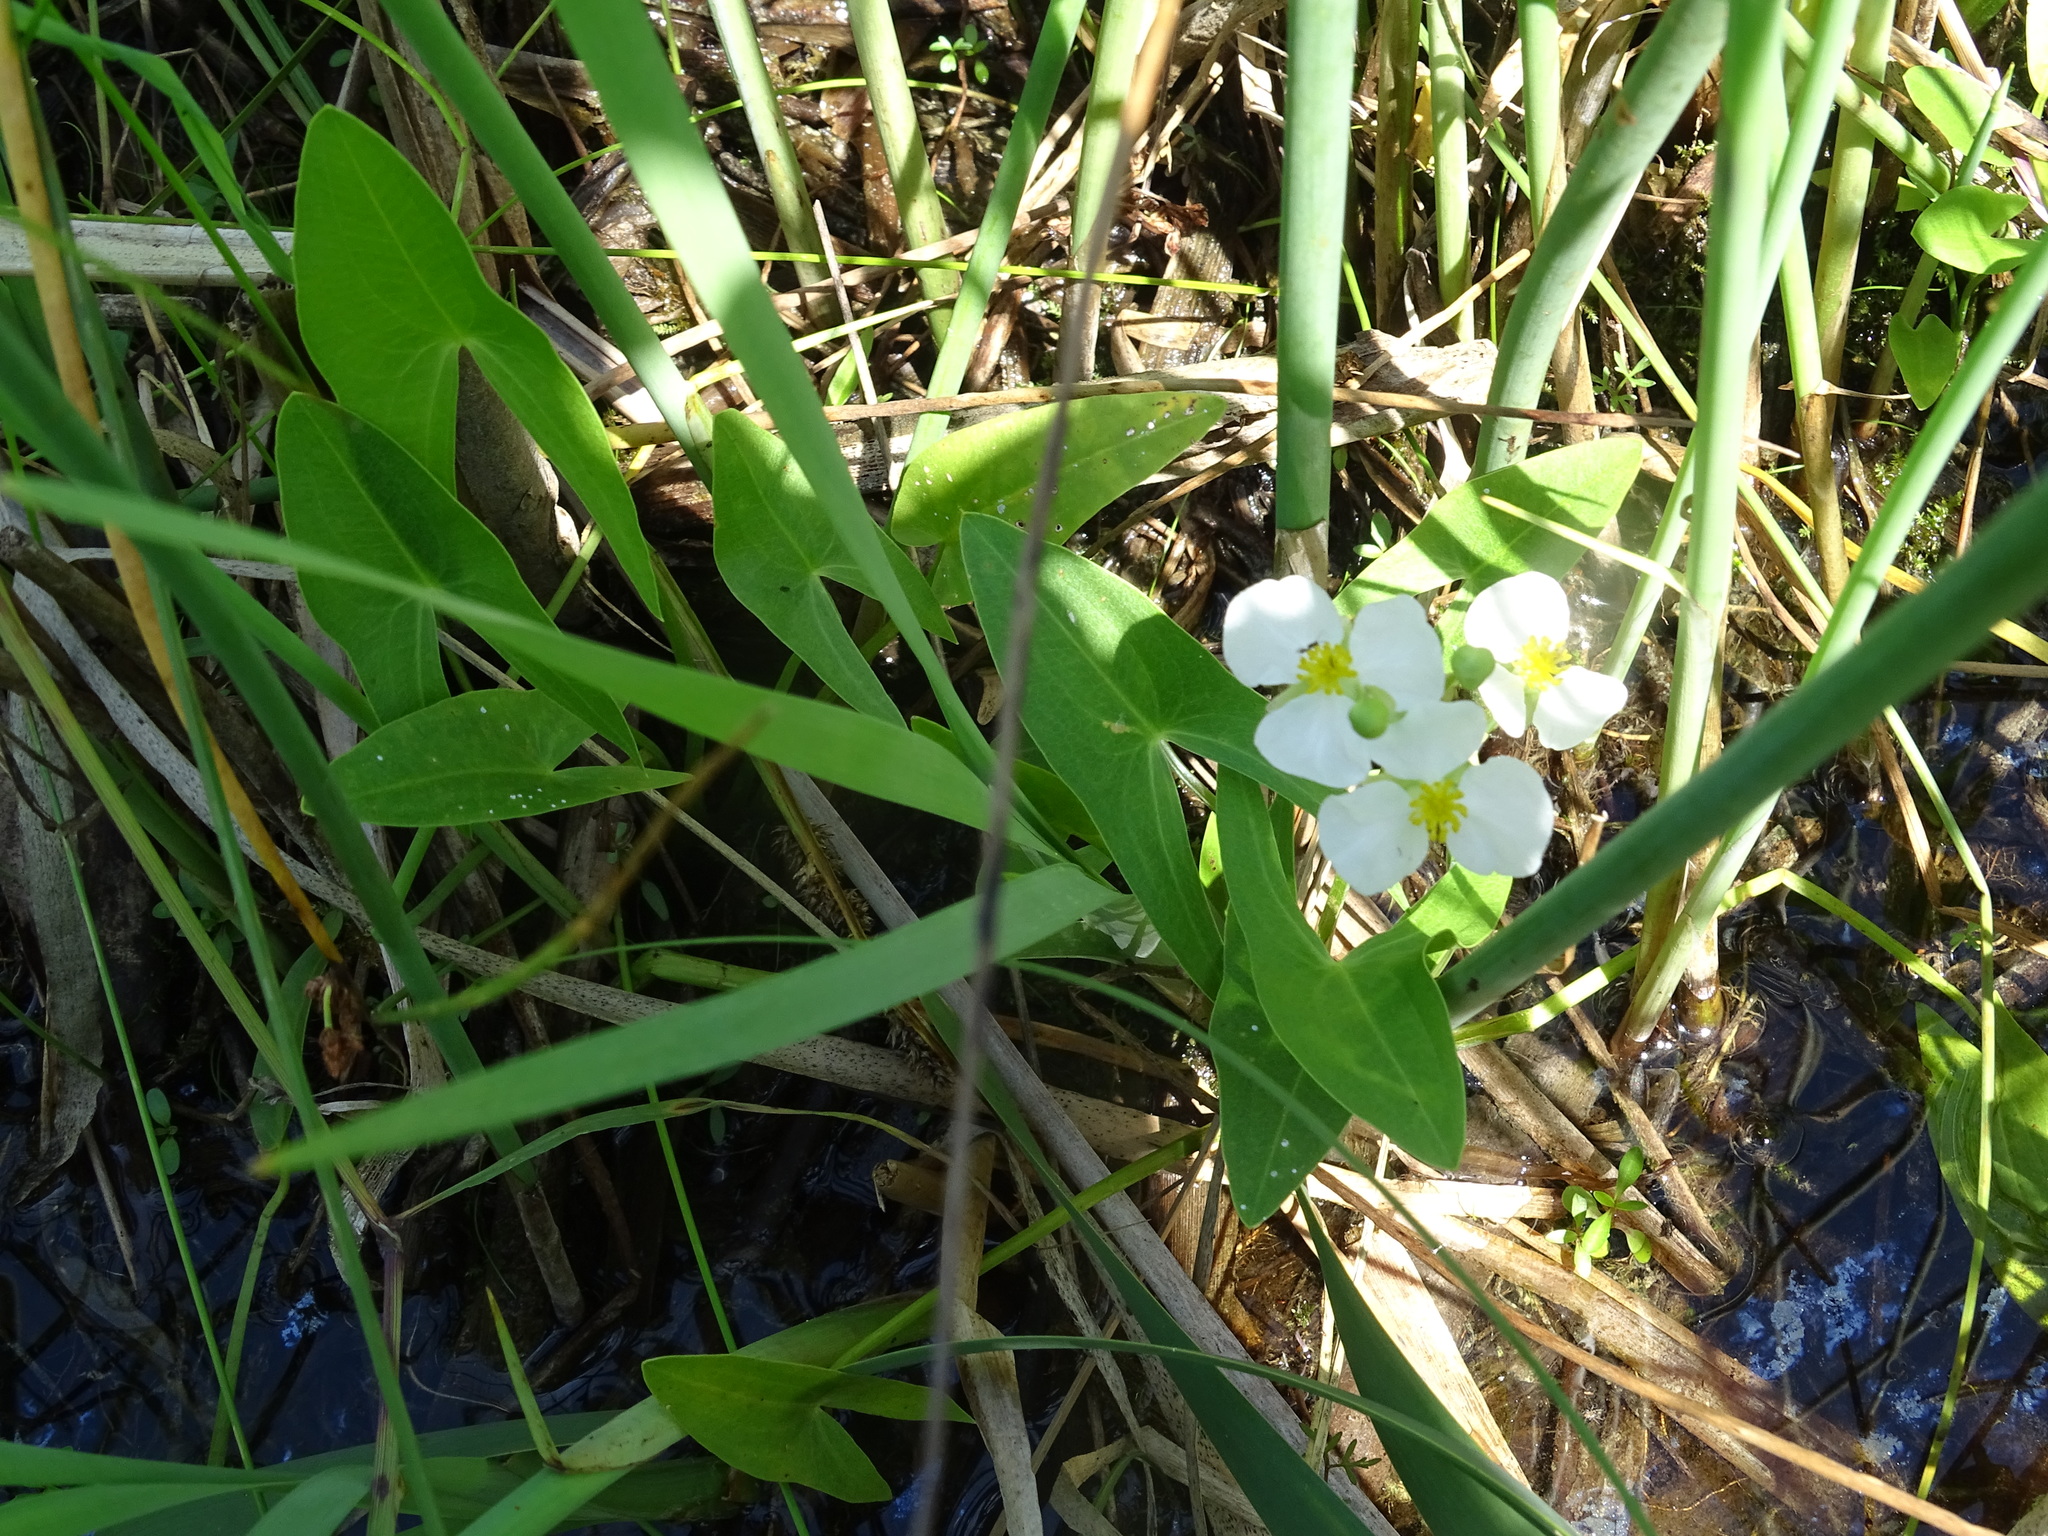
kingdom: Plantae
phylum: Tracheophyta
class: Liliopsida
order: Alismatales
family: Alismataceae
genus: Sagittaria
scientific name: Sagittaria latifolia
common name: Duck-potato
